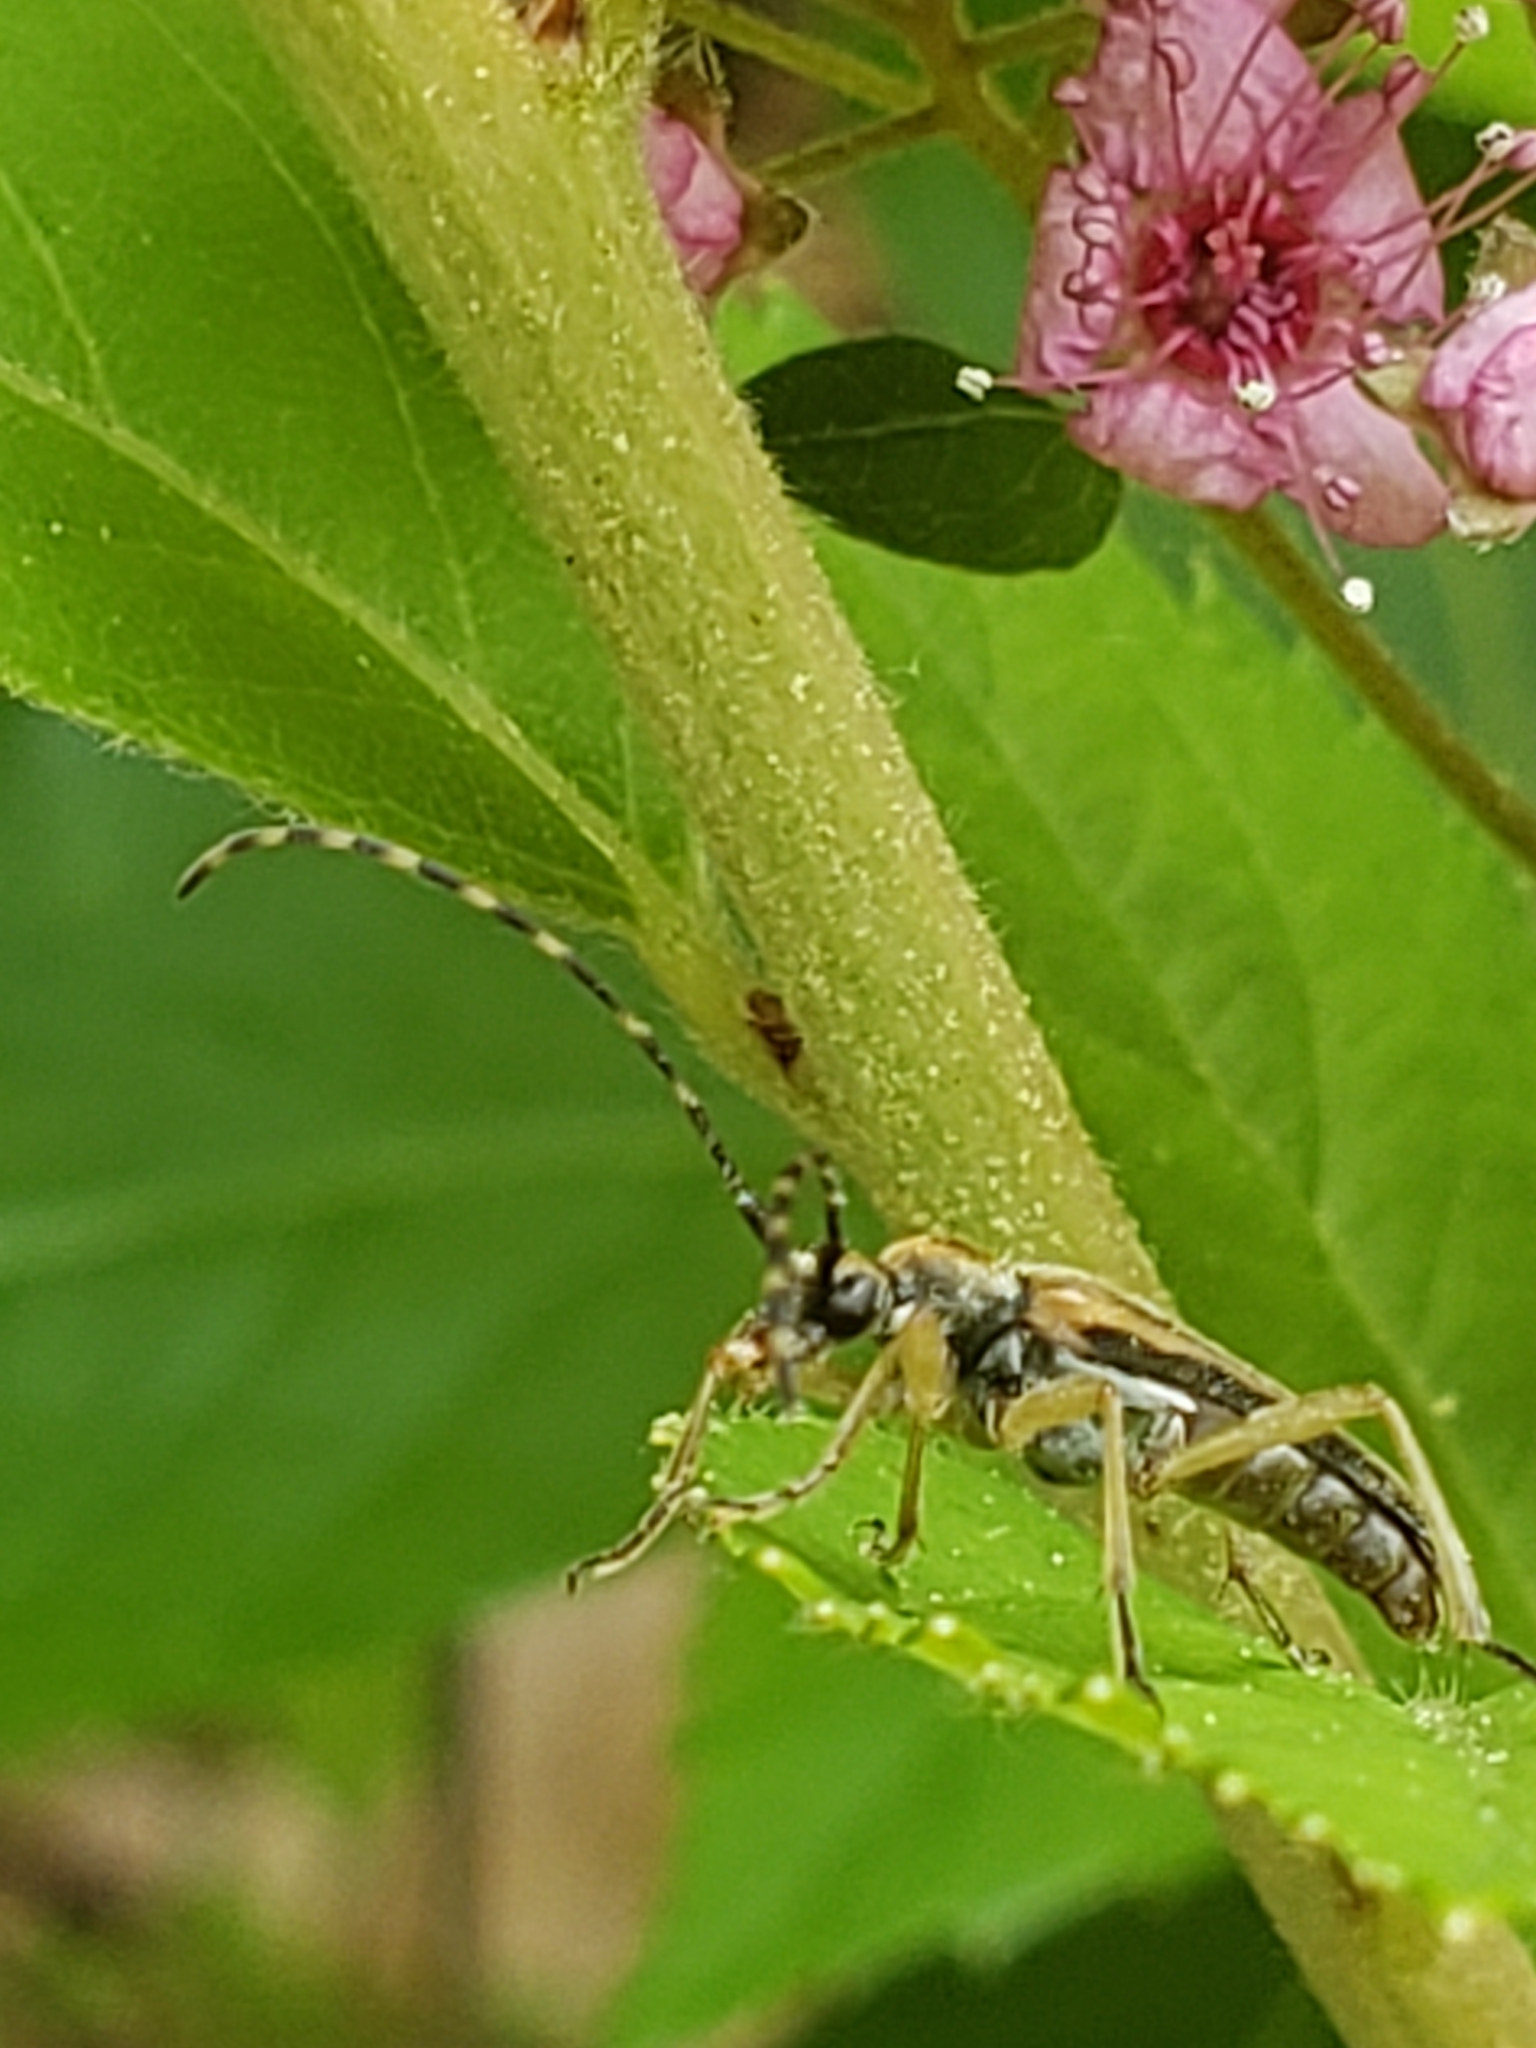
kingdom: Animalia
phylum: Arthropoda
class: Insecta
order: Coleoptera
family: Cerambycidae
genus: Analeptura
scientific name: Analeptura lineola
